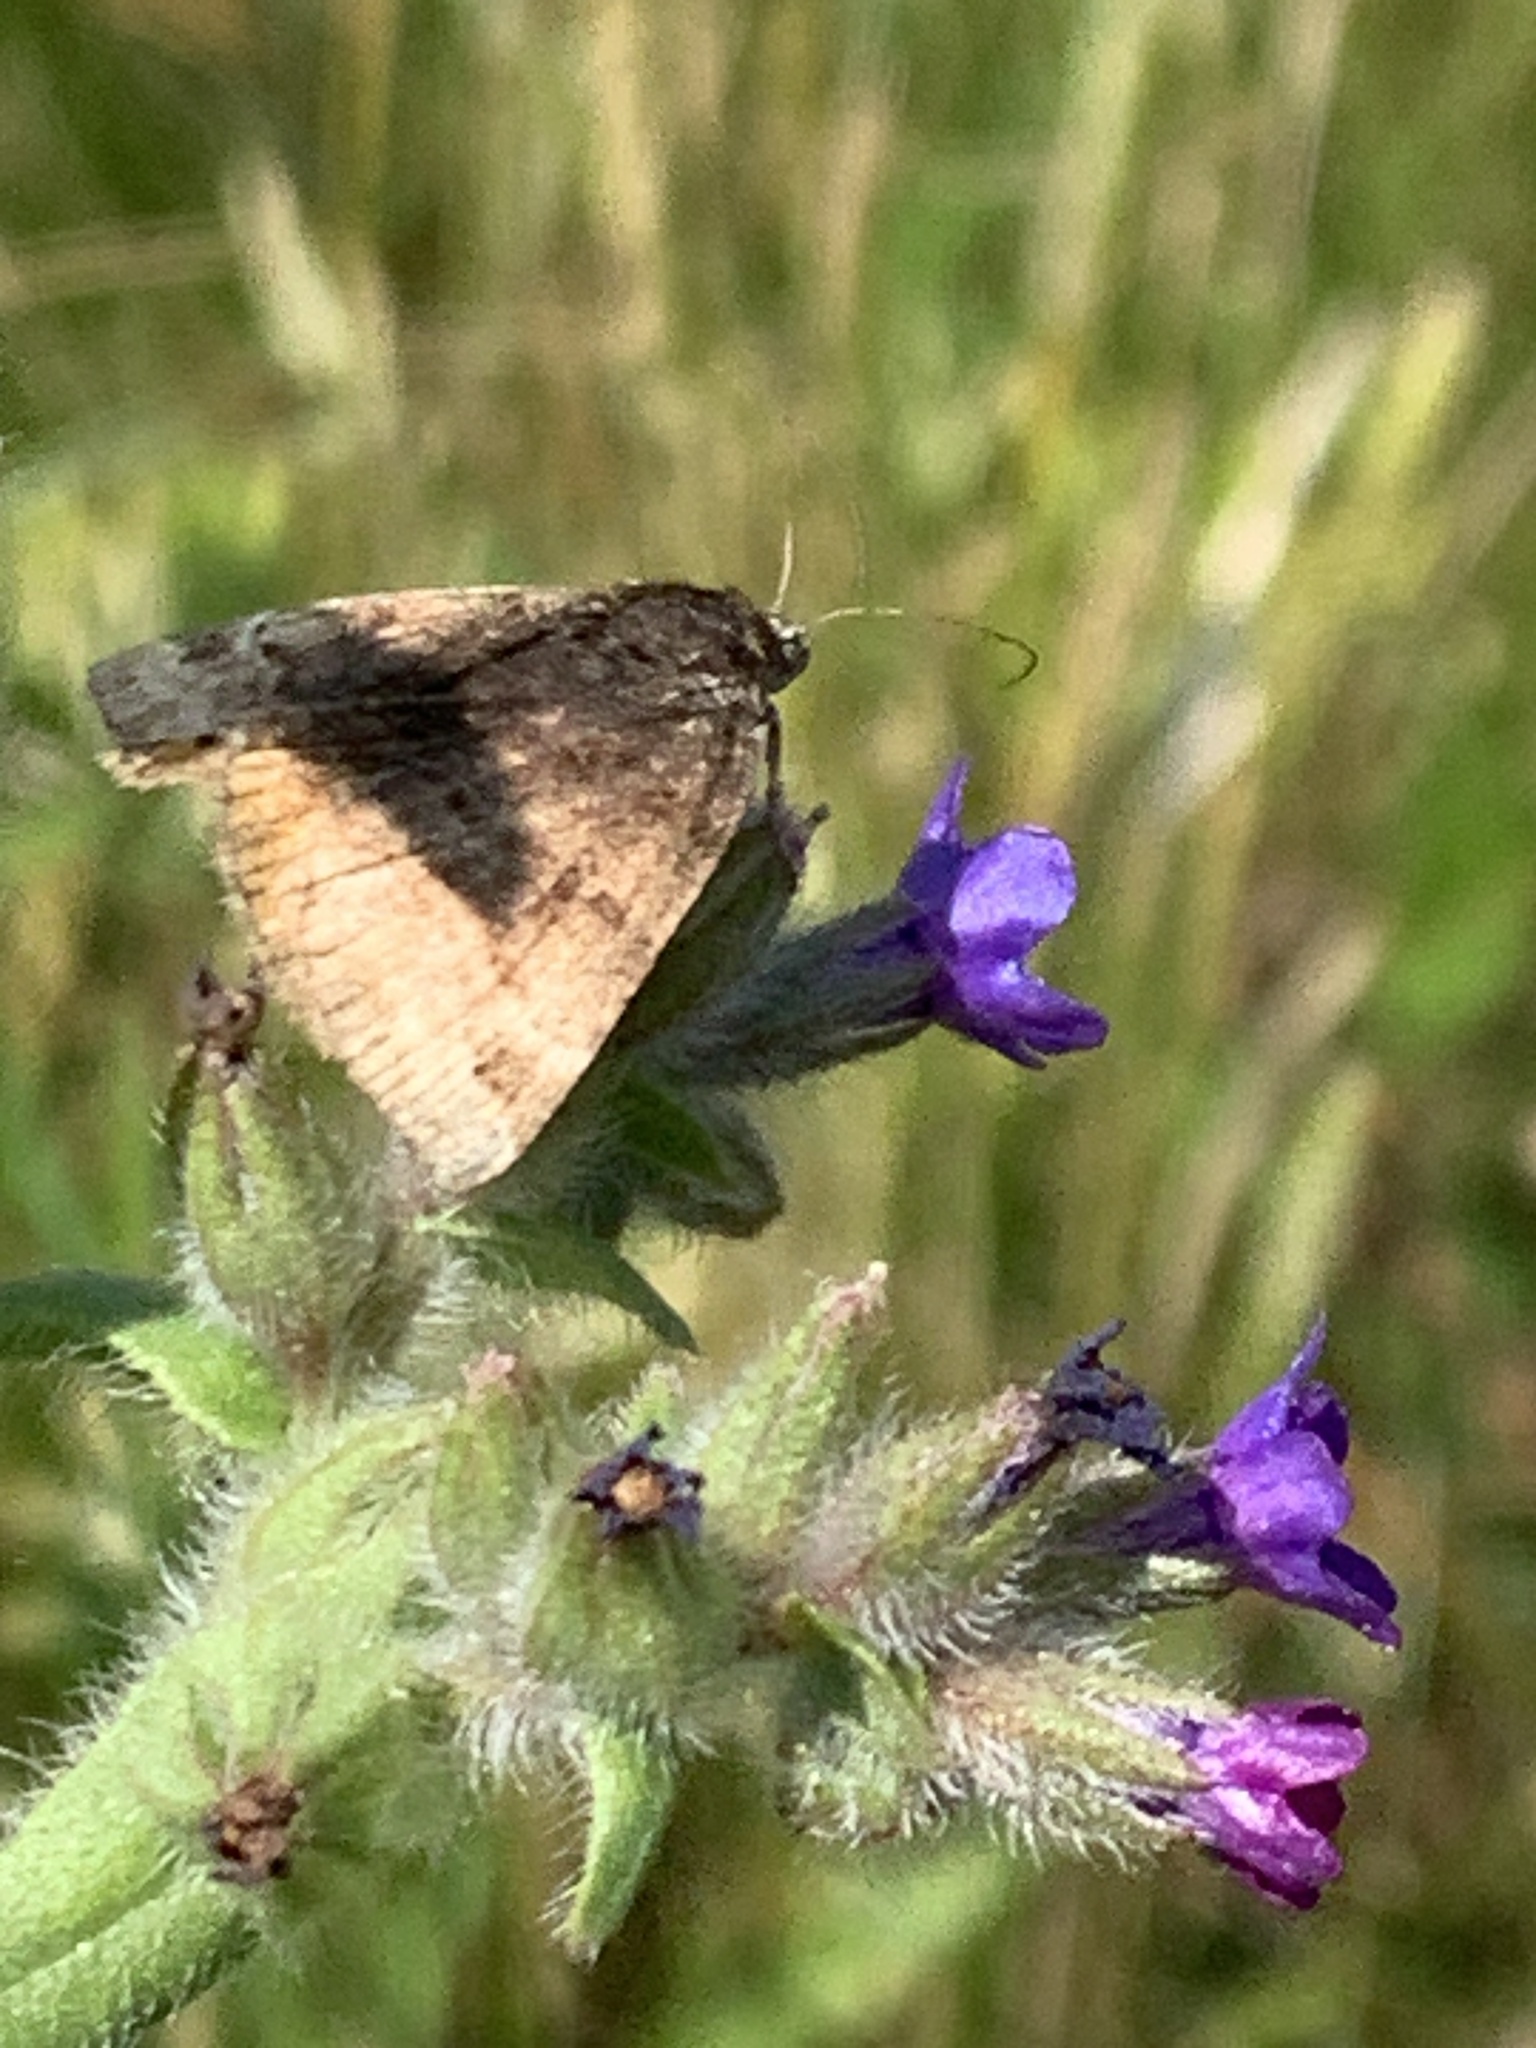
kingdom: Animalia
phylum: Arthropoda
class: Insecta
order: Lepidoptera
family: Erebidae
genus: Euclidia
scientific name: Euclidia glyphica
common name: Burnet companion
